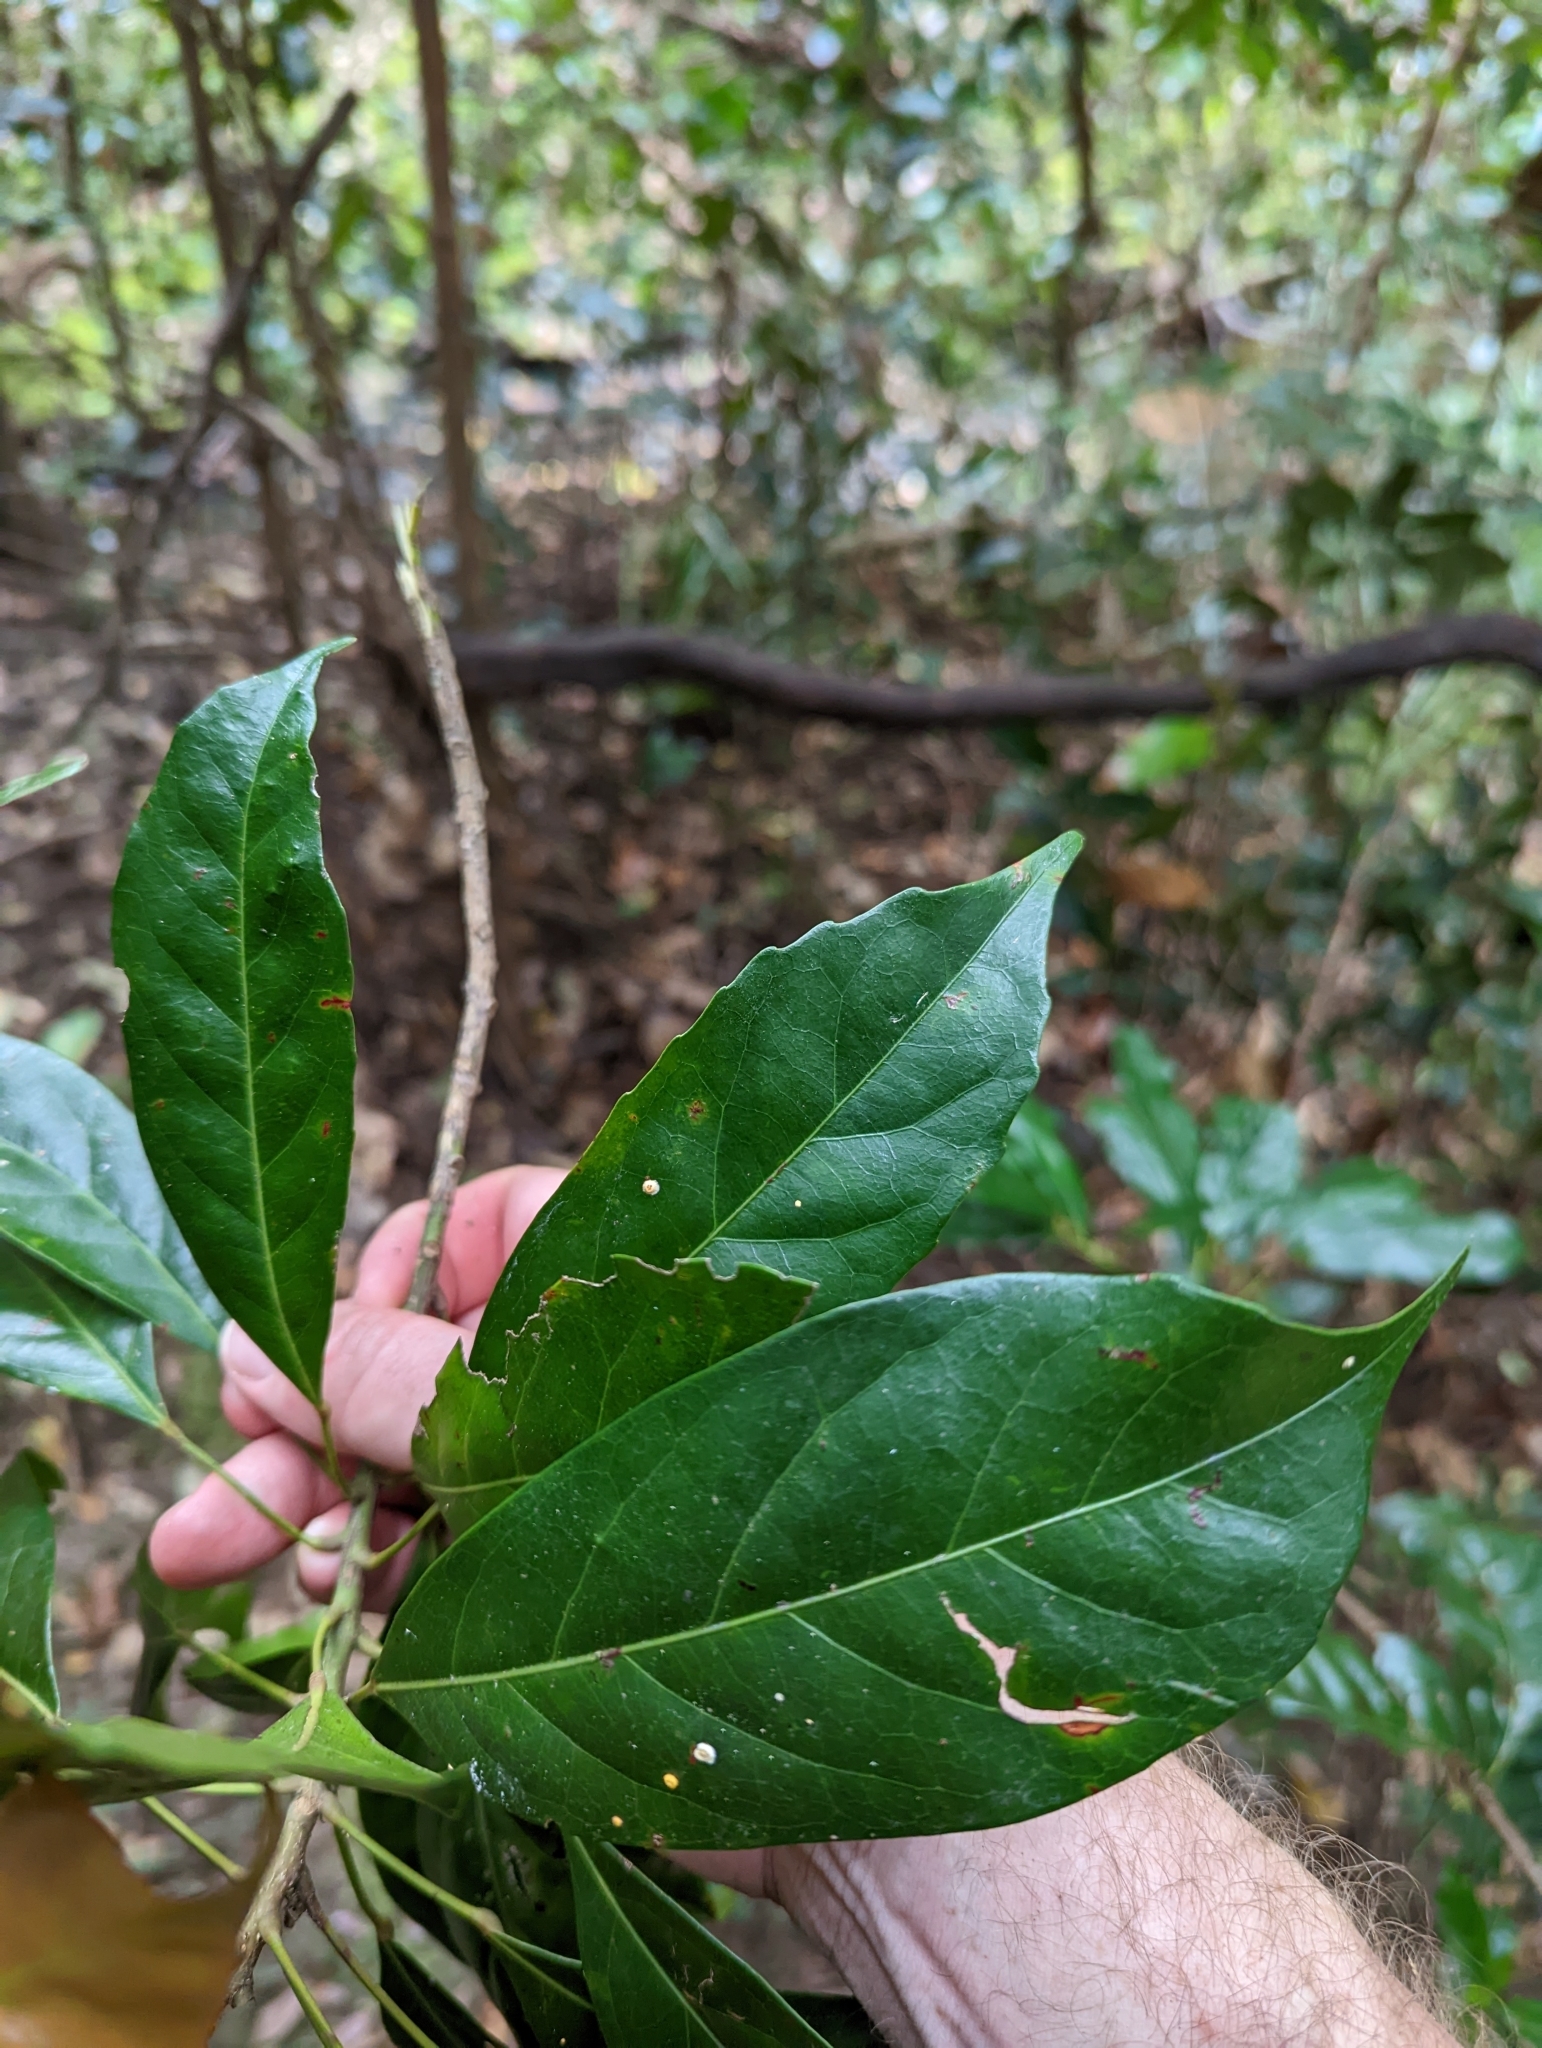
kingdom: Plantae
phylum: Tracheophyta
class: Magnoliopsida
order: Oxalidales
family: Elaeocarpaceae
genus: Elaeocarpus
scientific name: Elaeocarpus eumundi
